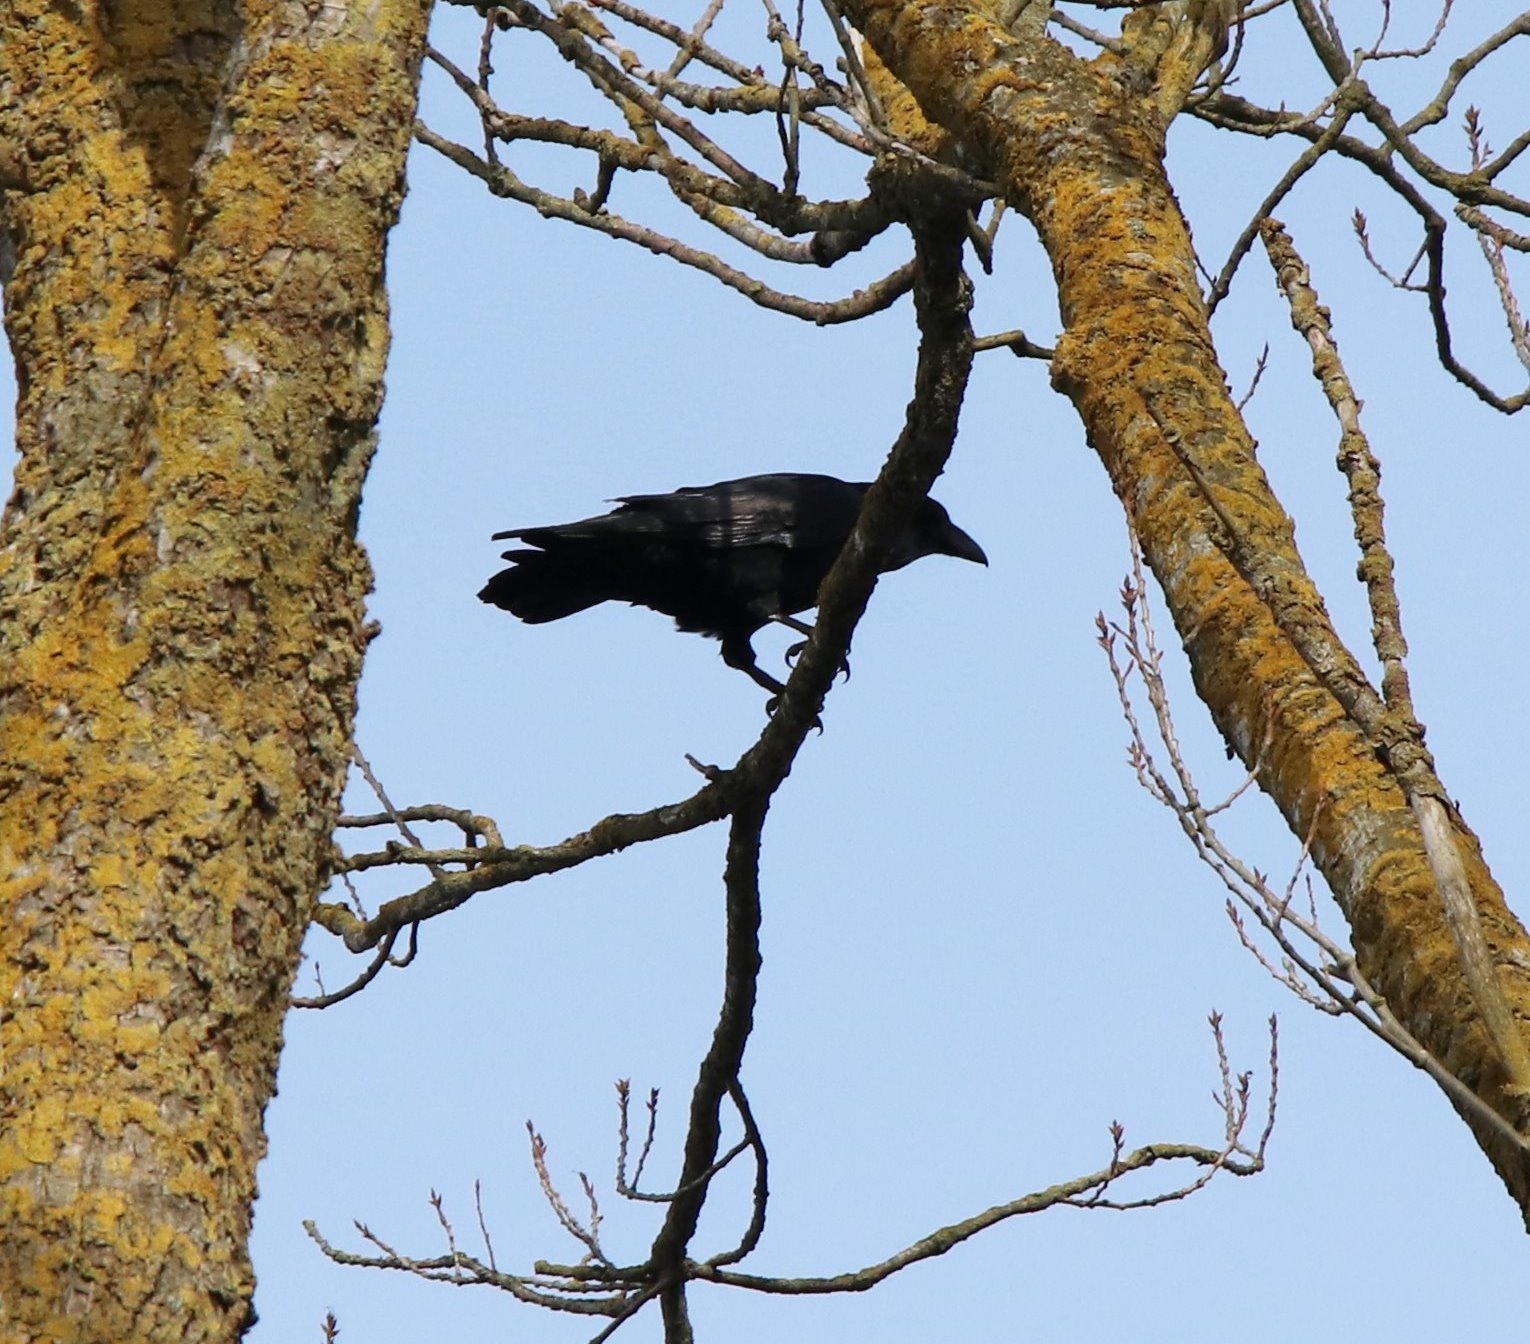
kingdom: Animalia
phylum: Chordata
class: Aves
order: Passeriformes
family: Corvidae
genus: Corvus
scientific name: Corvus corax
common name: Common raven
